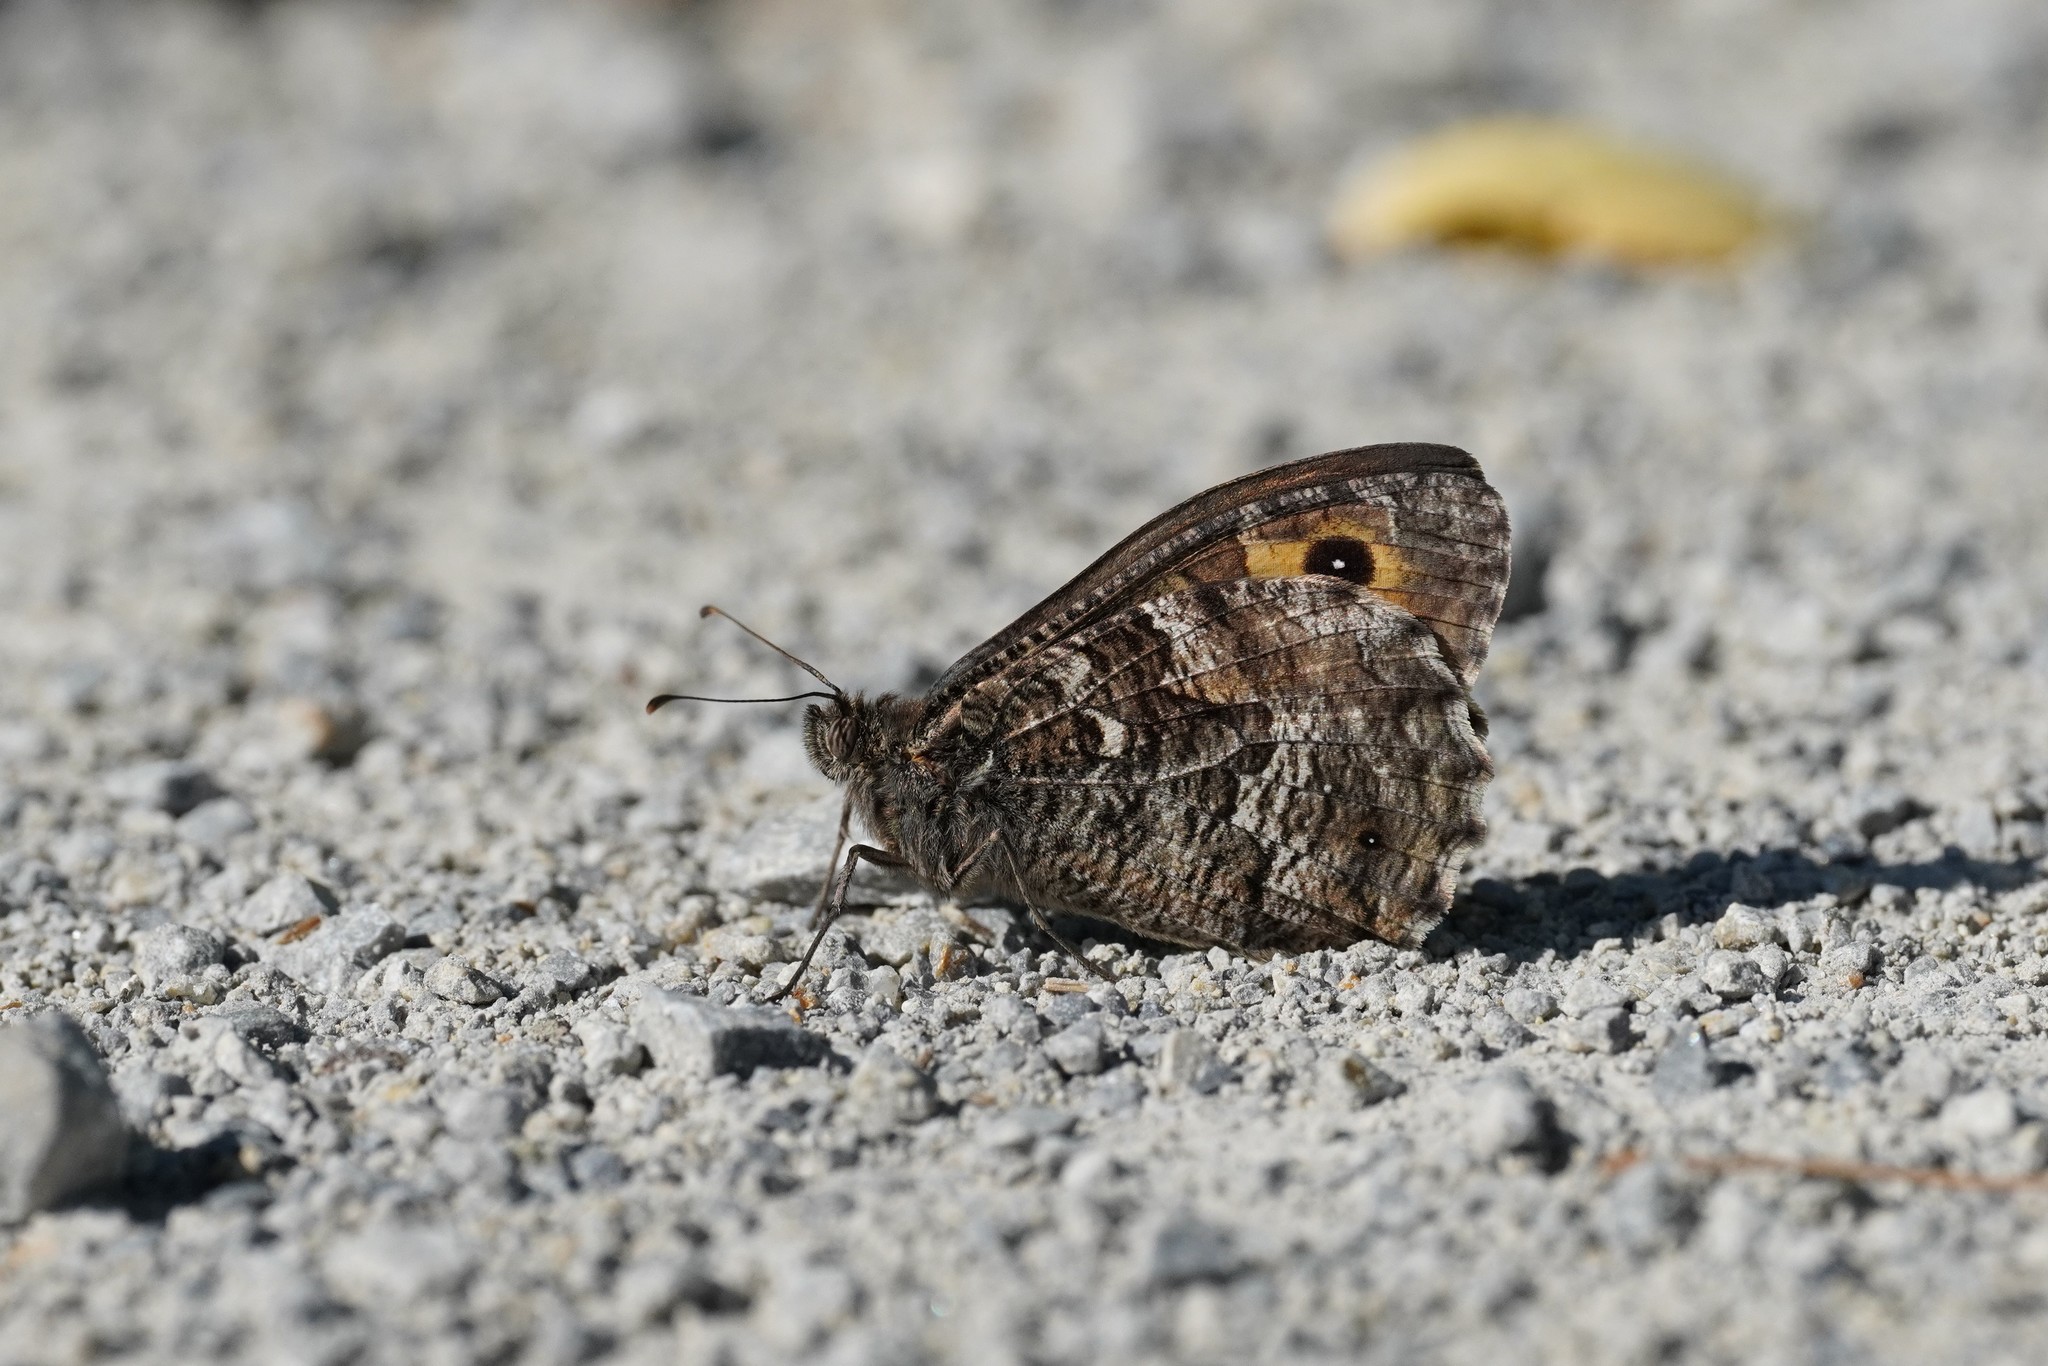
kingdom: Animalia
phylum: Arthropoda
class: Insecta
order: Lepidoptera
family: Nymphalidae
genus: Hipparchia
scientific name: Hipparchia semele
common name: Grayling
